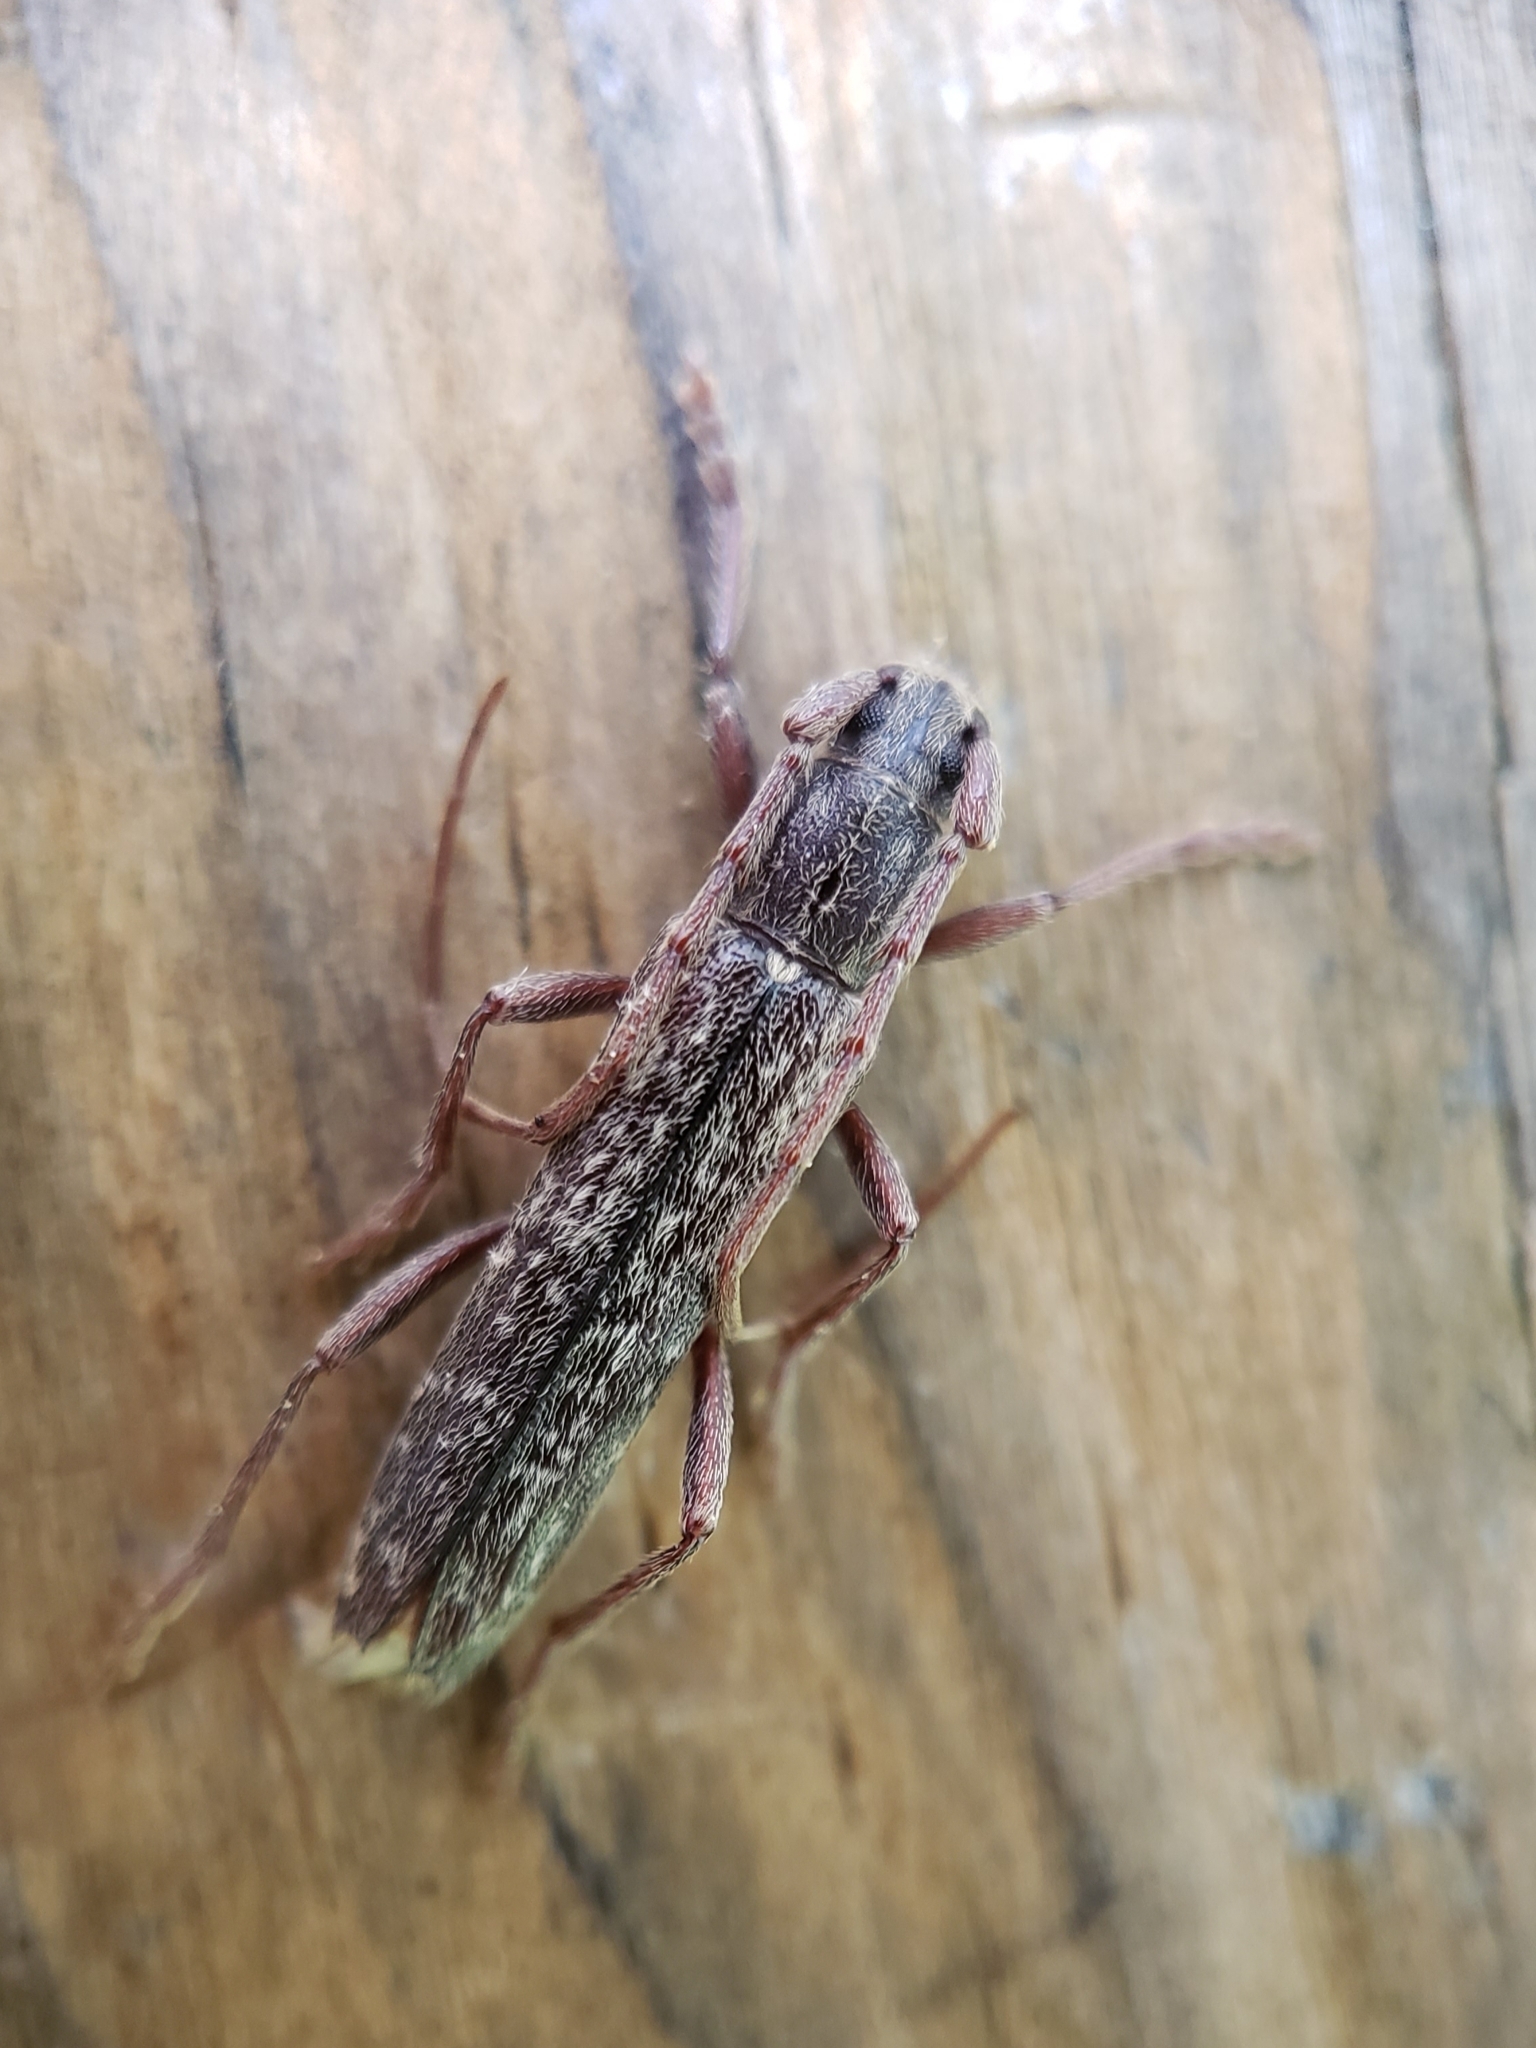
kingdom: Animalia
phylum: Arthropoda
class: Insecta
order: Coleoptera
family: Cerambycidae
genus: Anelaphus
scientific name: Anelaphus villosus
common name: Twig pruner
